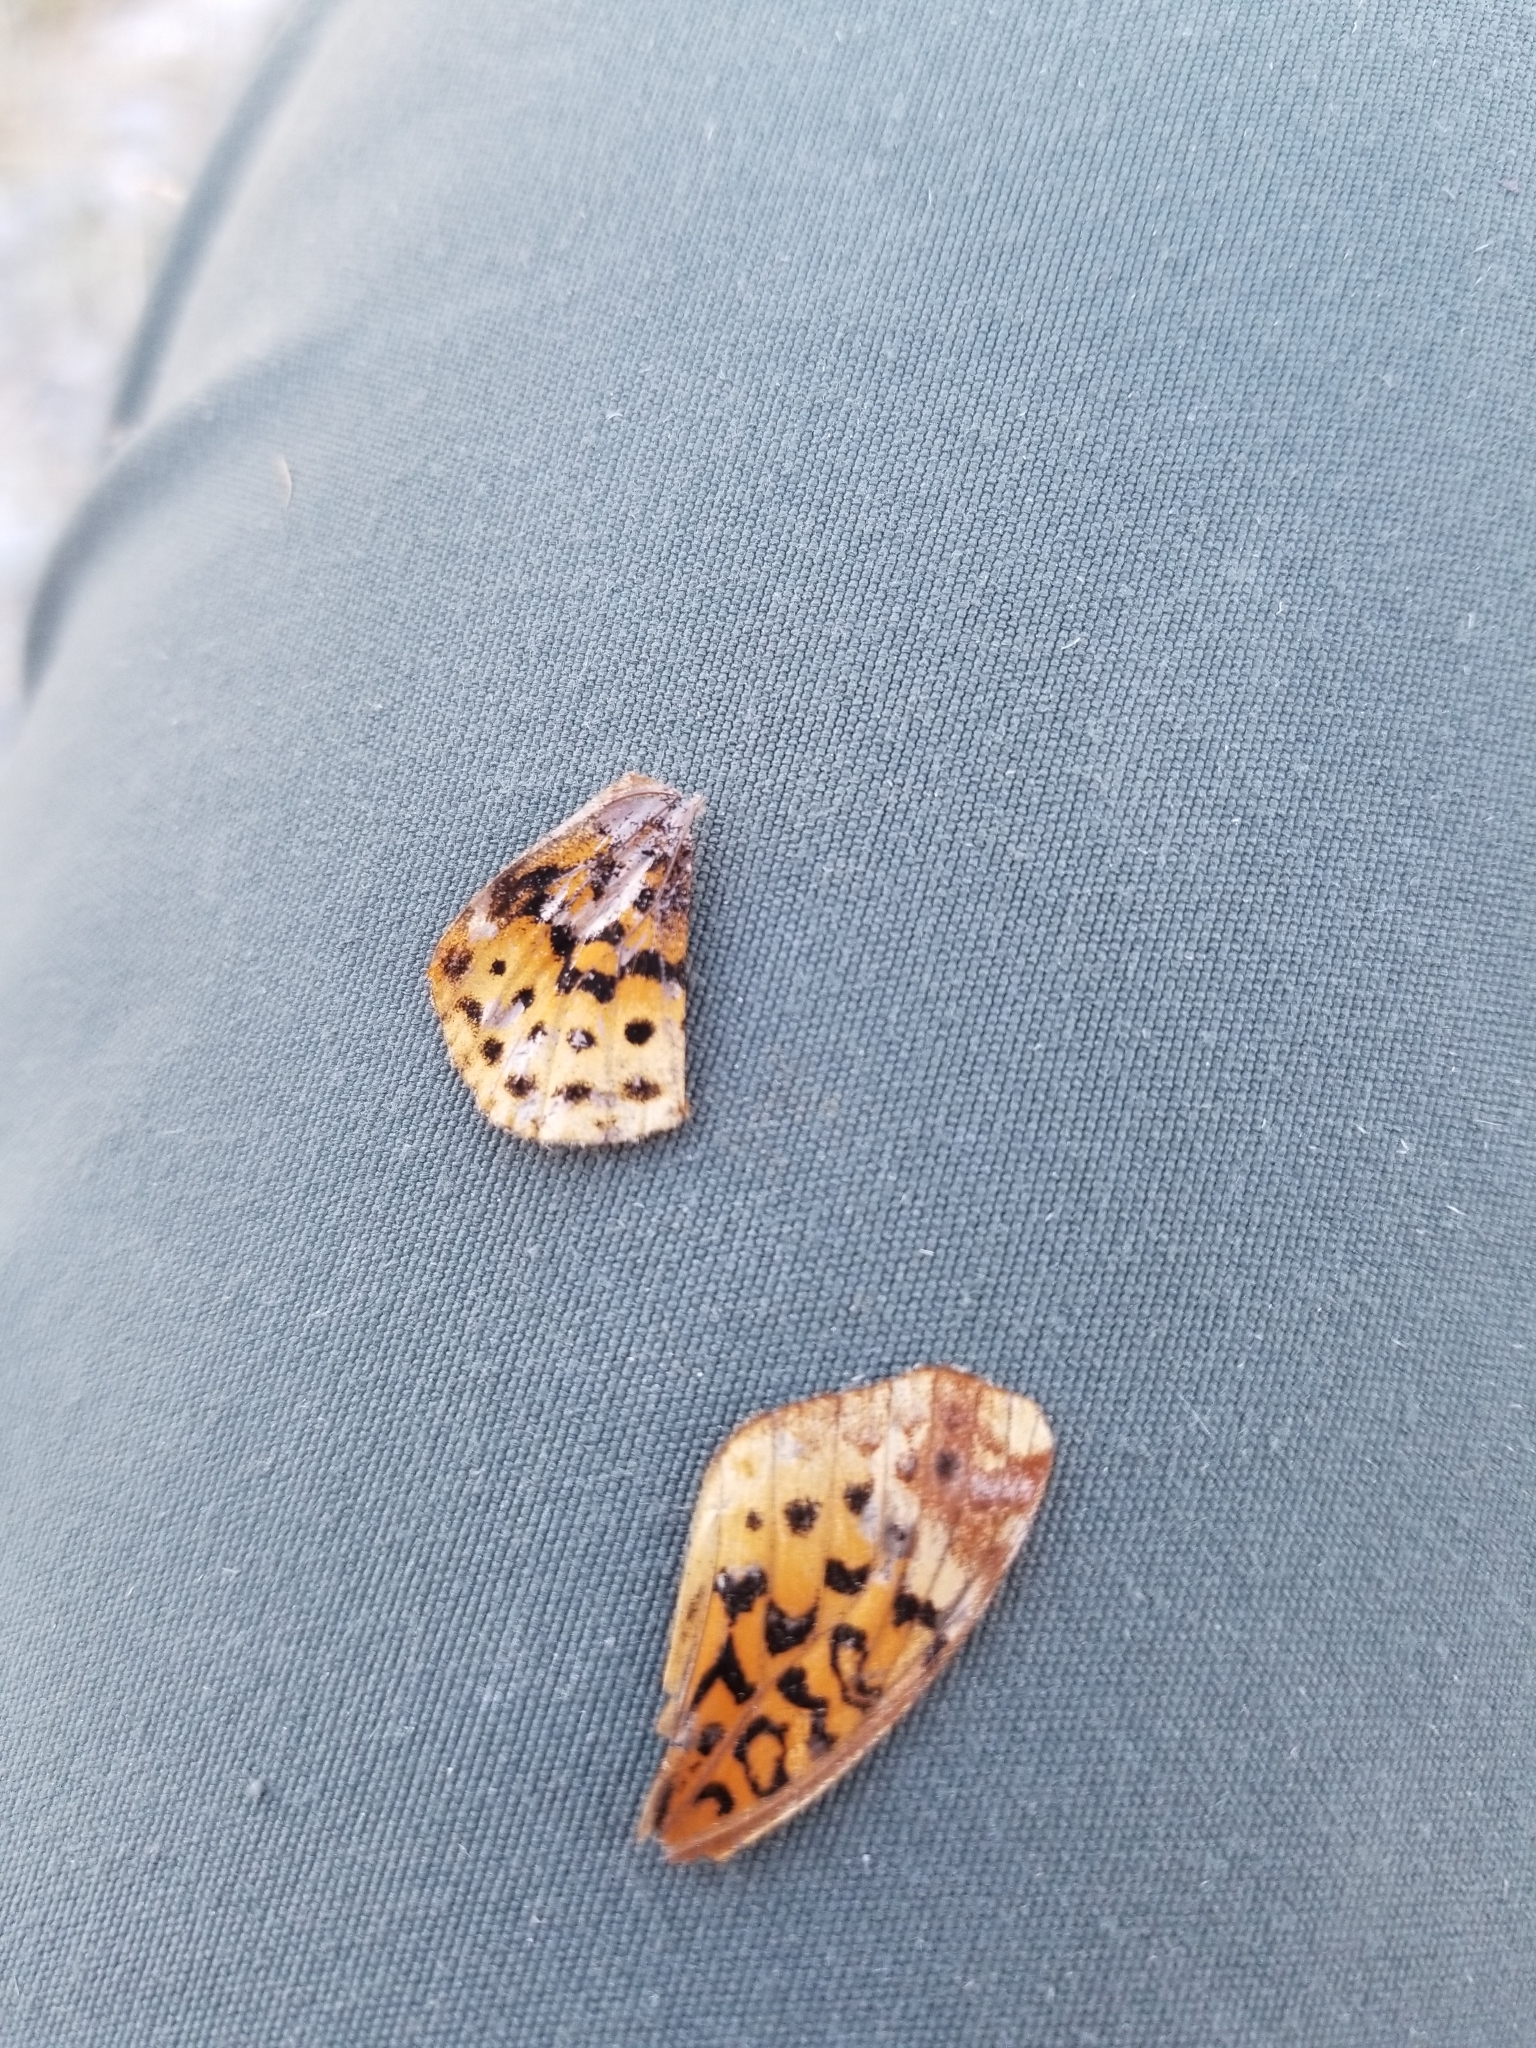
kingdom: Animalia
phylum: Arthropoda
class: Insecta
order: Lepidoptera
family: Nymphalidae
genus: Clossiana
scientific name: Clossiana toddi
